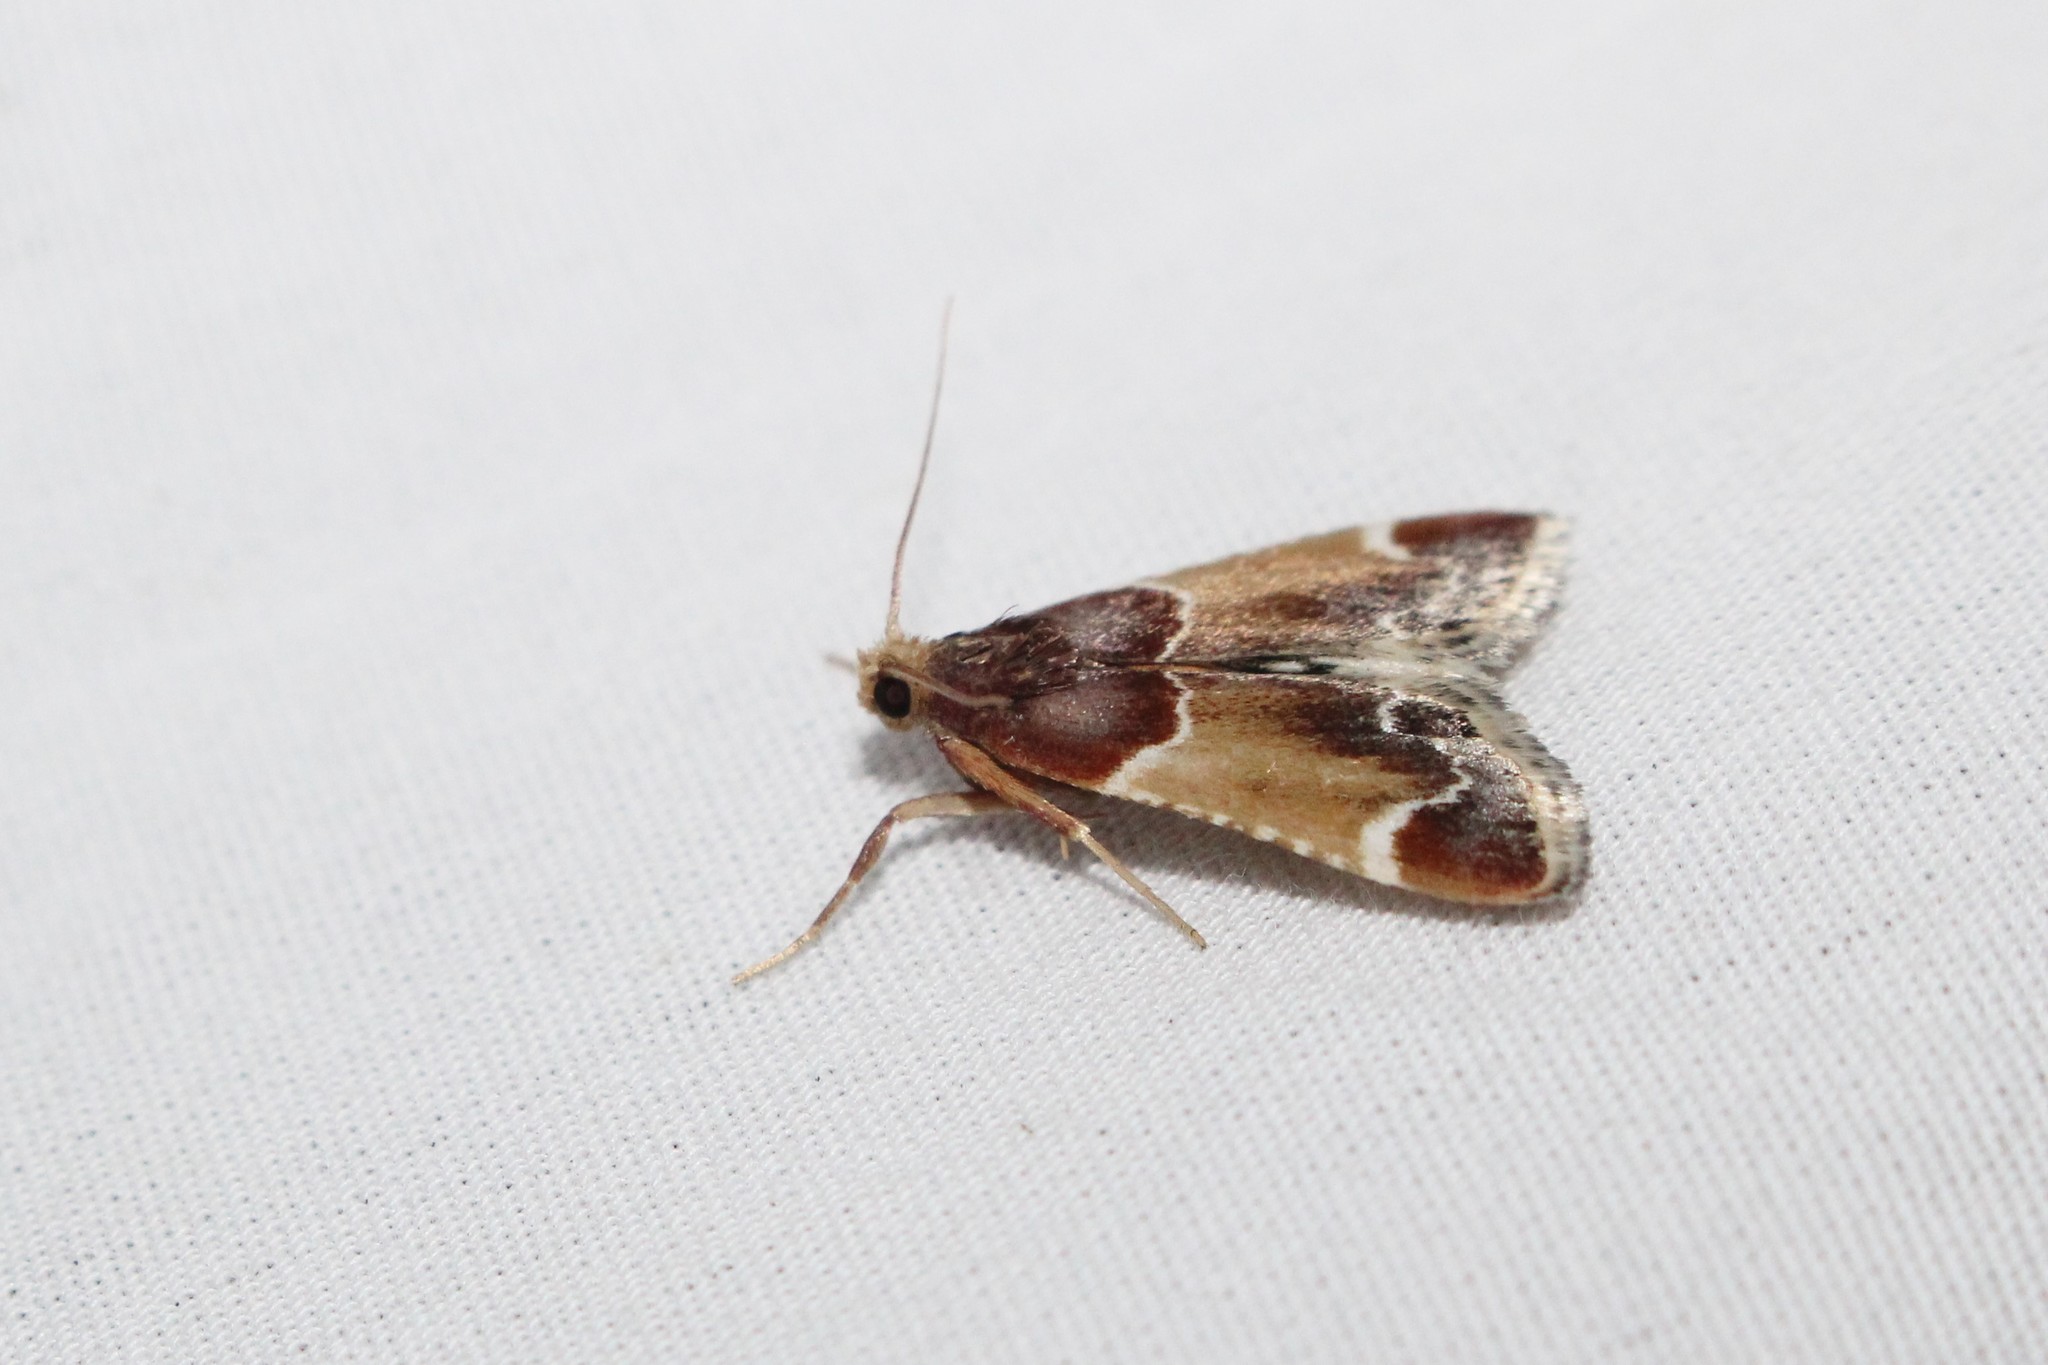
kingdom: Animalia
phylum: Arthropoda
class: Insecta
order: Lepidoptera
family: Pyralidae
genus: Pyralis
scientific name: Pyralis farinalis
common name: Meal moth
